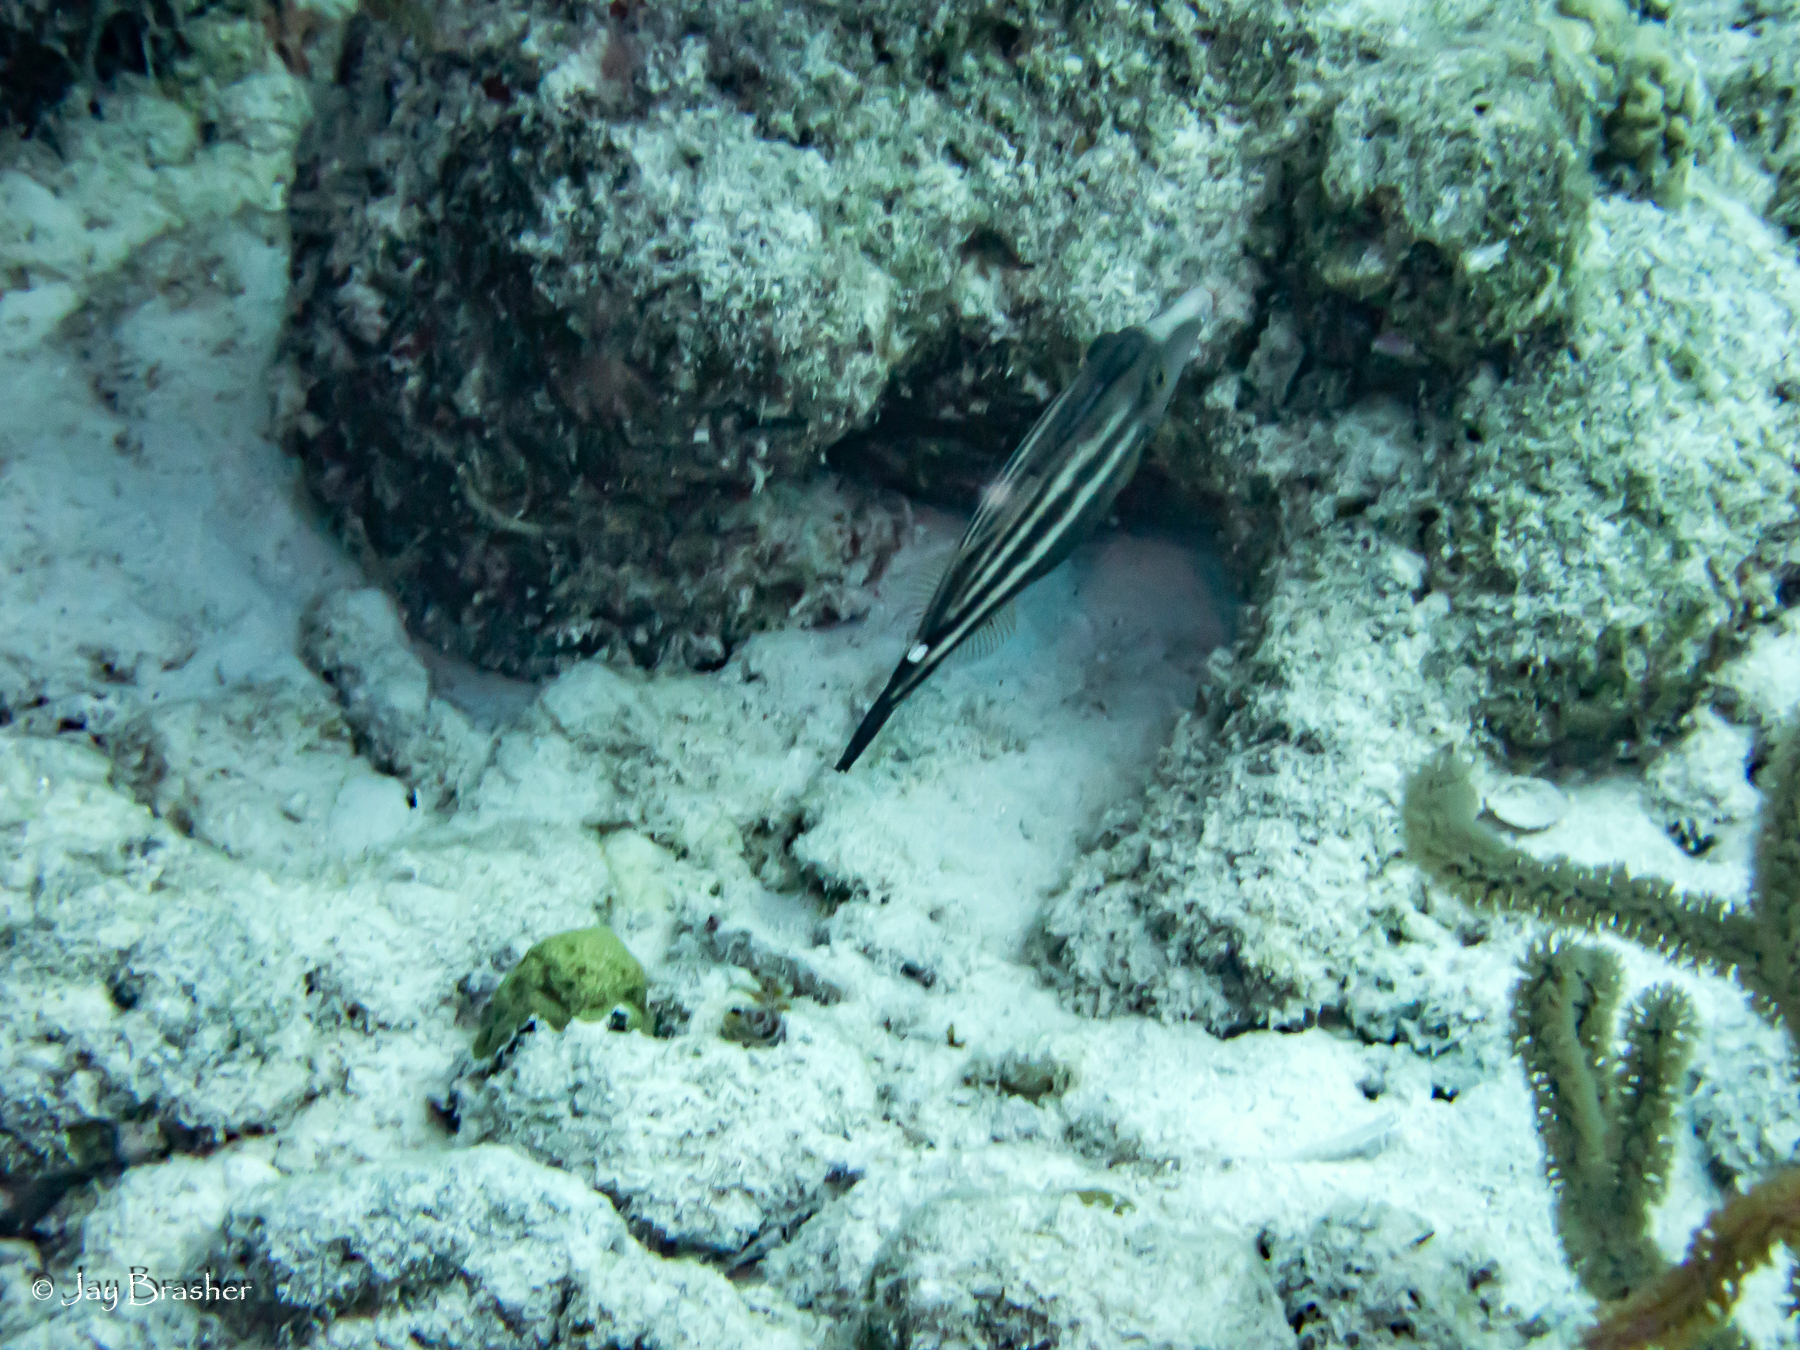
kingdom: Animalia
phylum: Chordata
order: Tetraodontiformes
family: Monacanthidae
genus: Cantherhines
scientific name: Cantherhines pullus
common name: Orangespotted filefish
